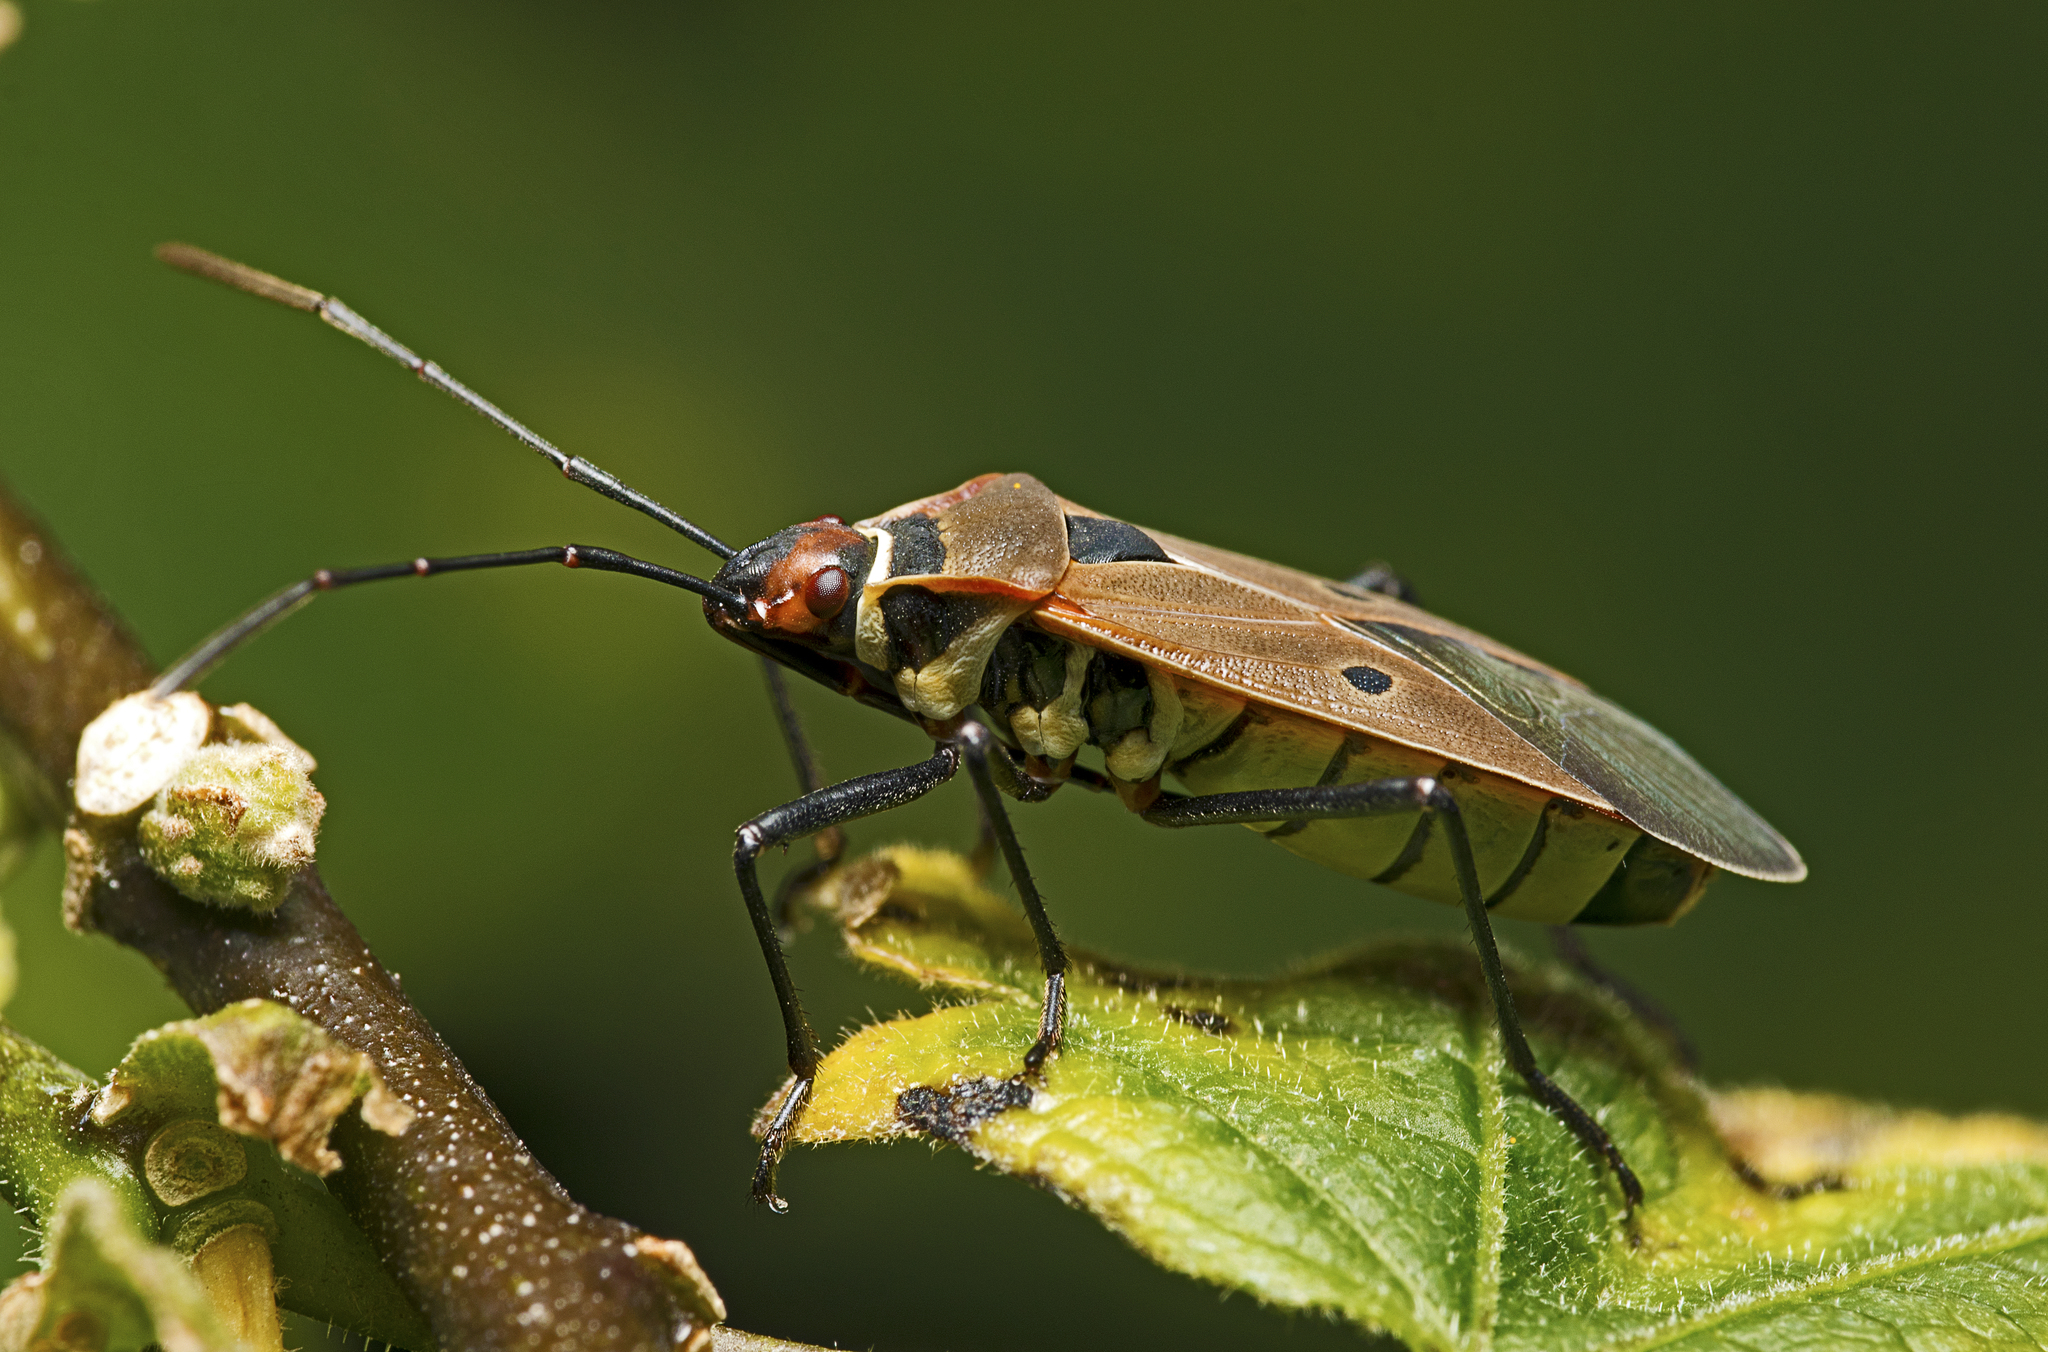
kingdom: Animalia
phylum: Arthropoda
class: Insecta
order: Hemiptera
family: Pyrrhocoridae
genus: Dysdercus
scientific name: Dysdercus sidae
